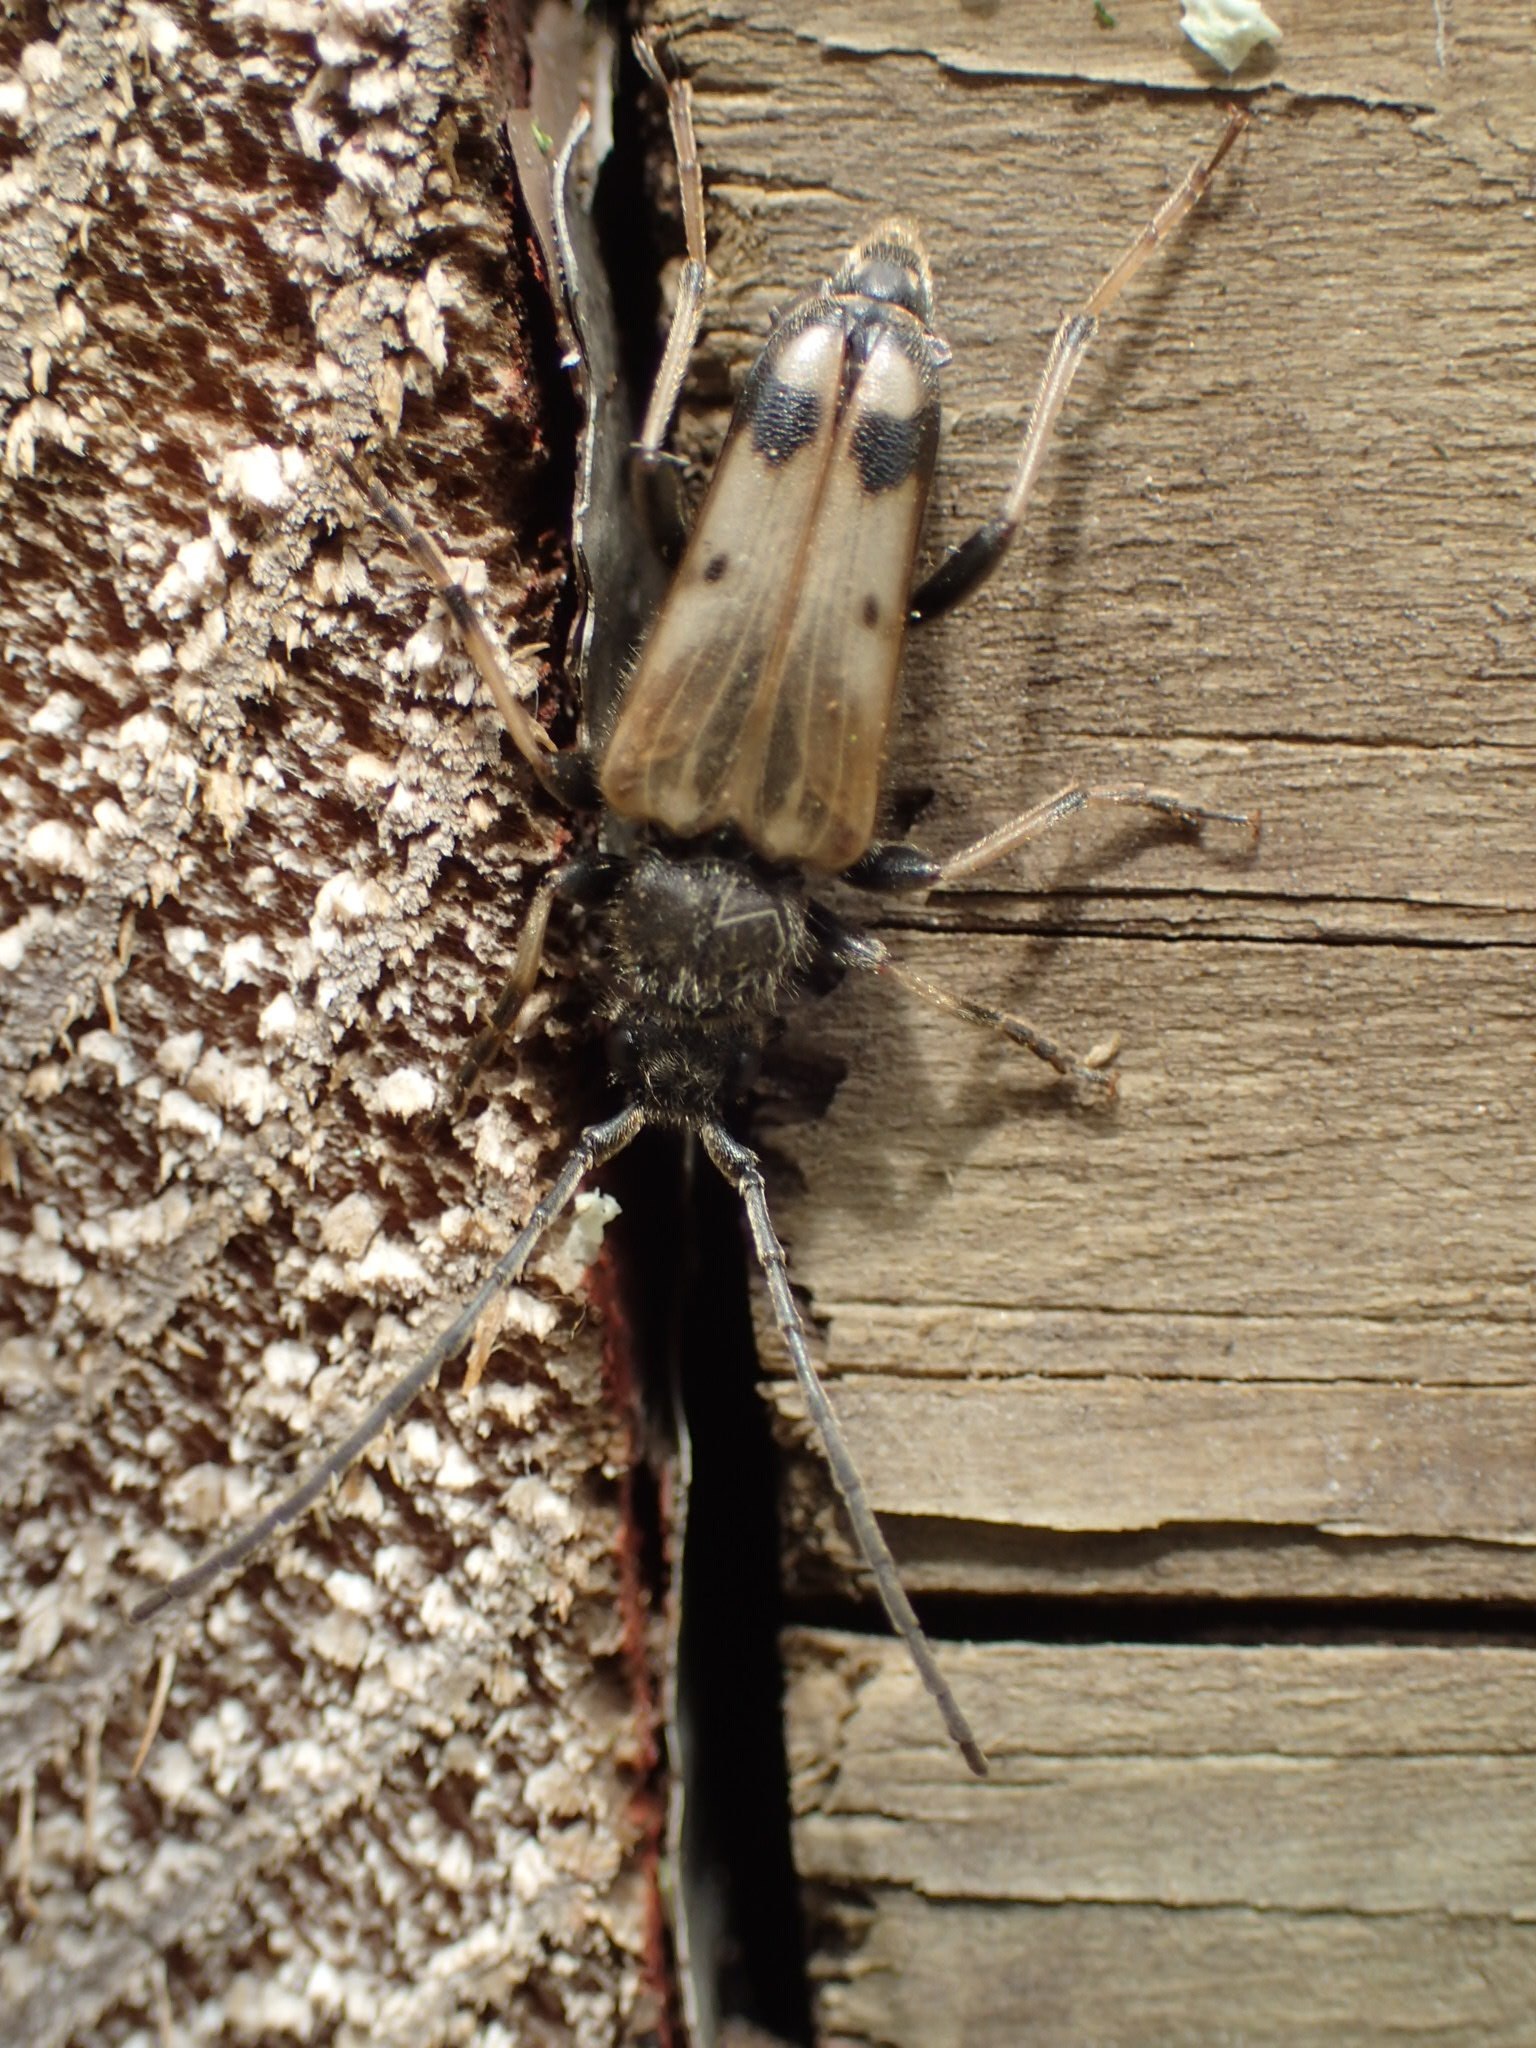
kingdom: Animalia
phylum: Arthropoda
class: Insecta
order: Coleoptera
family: Cerambycidae
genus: Xestoleptura
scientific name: Xestoleptura tibialis
